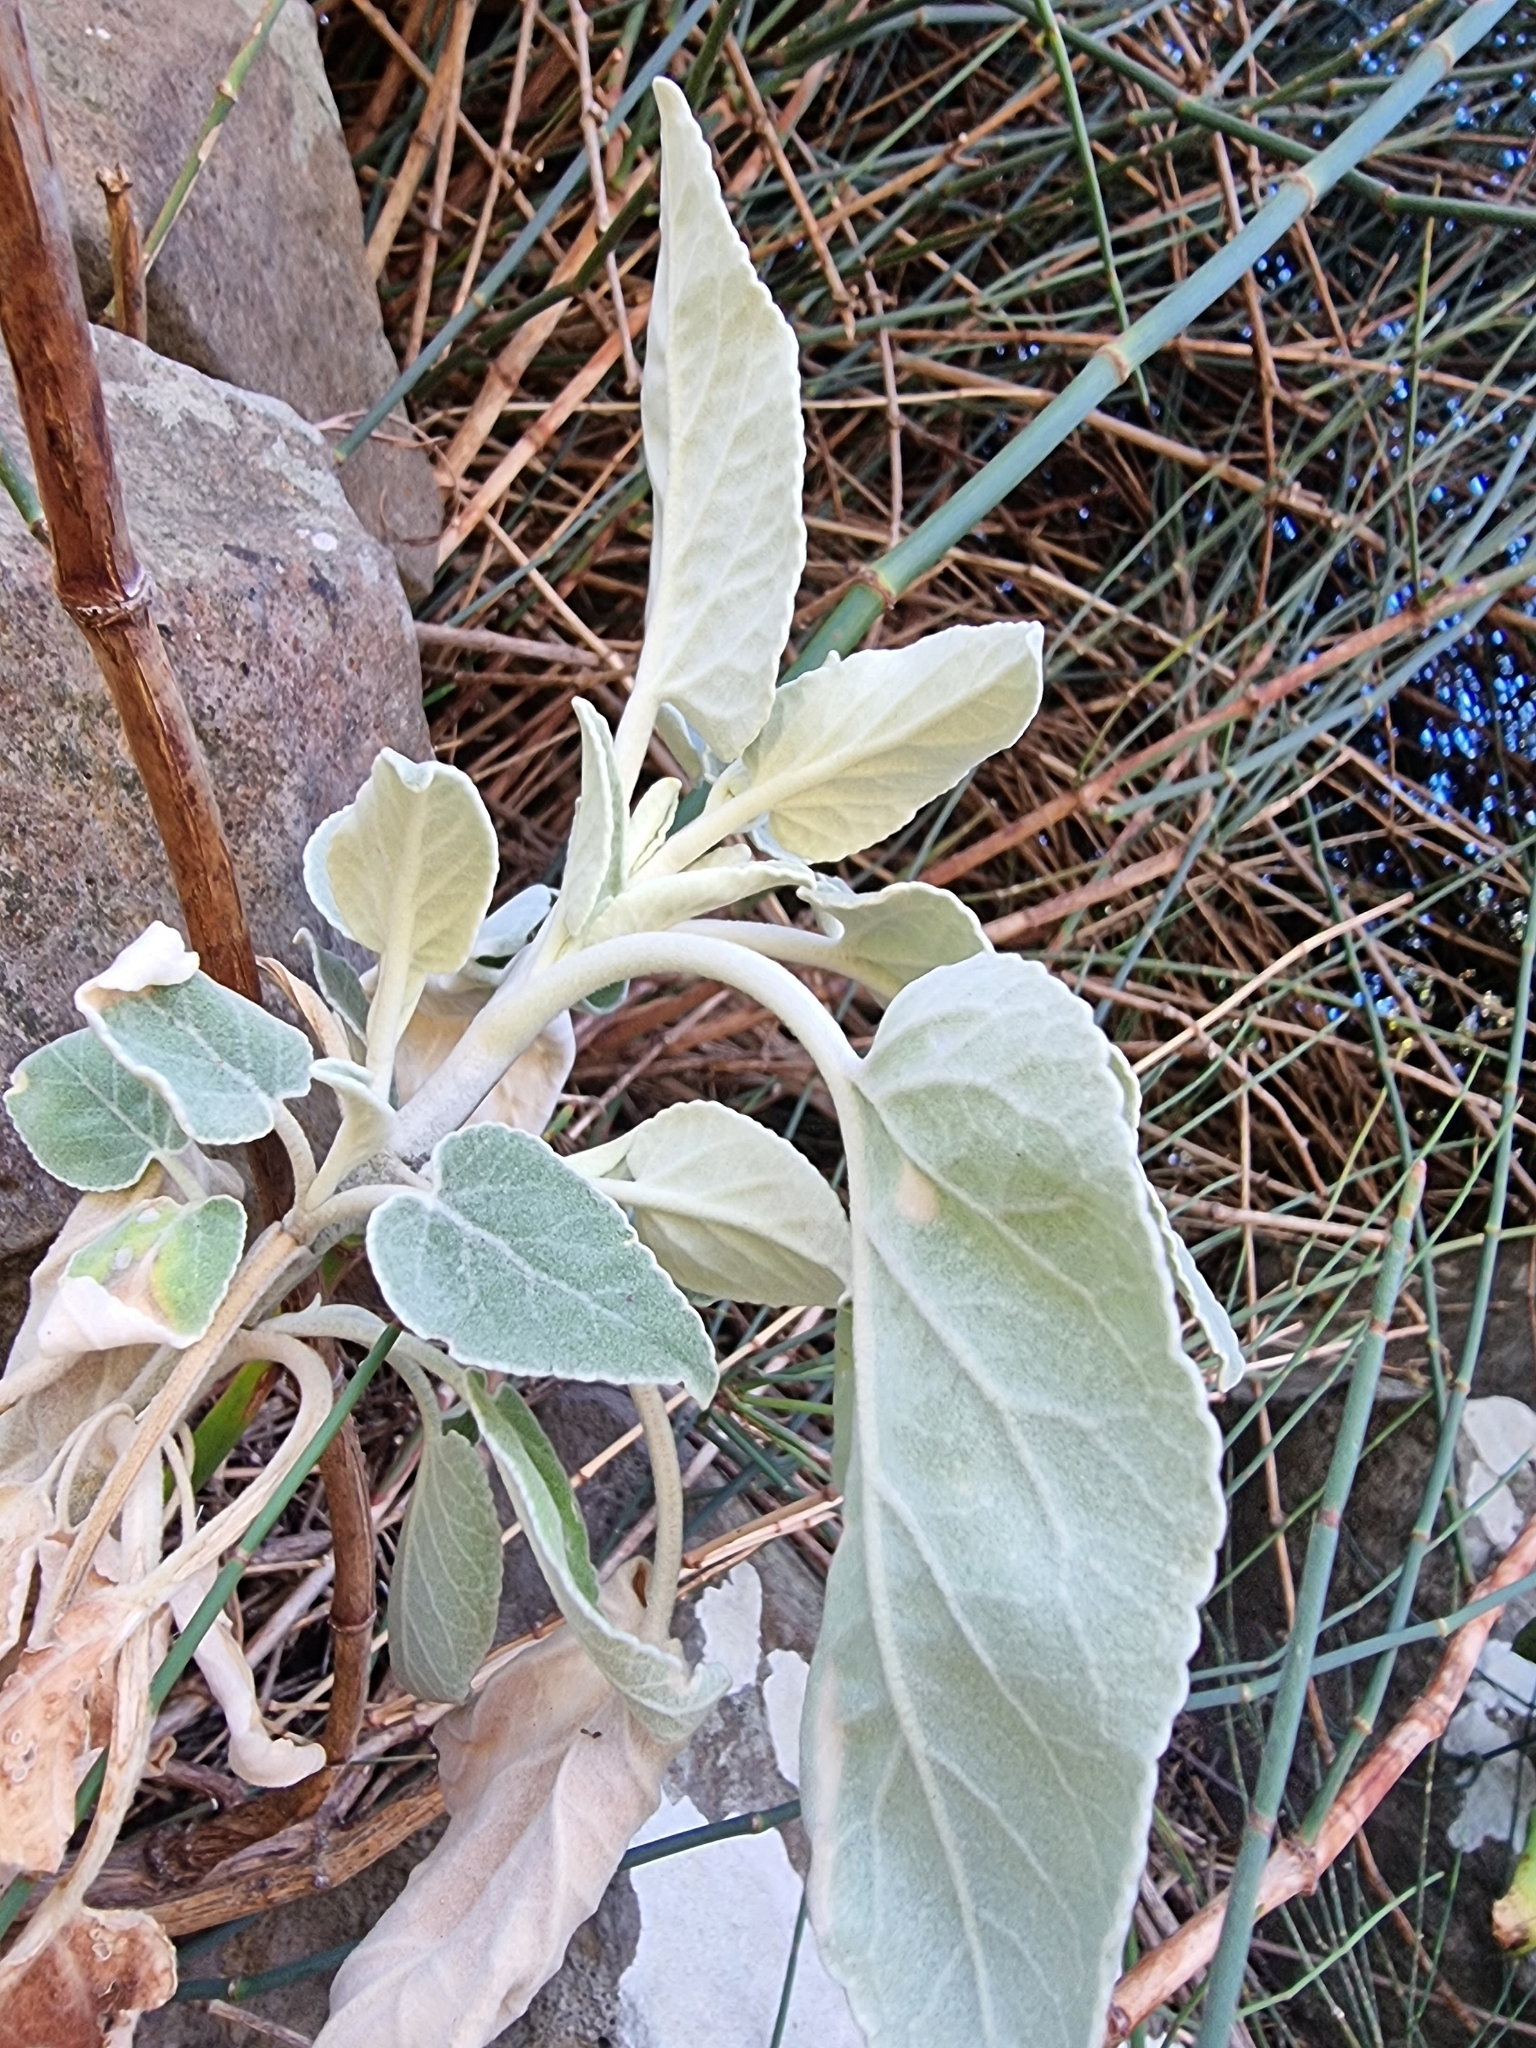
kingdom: Plantae
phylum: Tracheophyta
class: Magnoliopsida
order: Lamiales
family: Lamiaceae
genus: Sideritis
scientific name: Sideritis candicans
